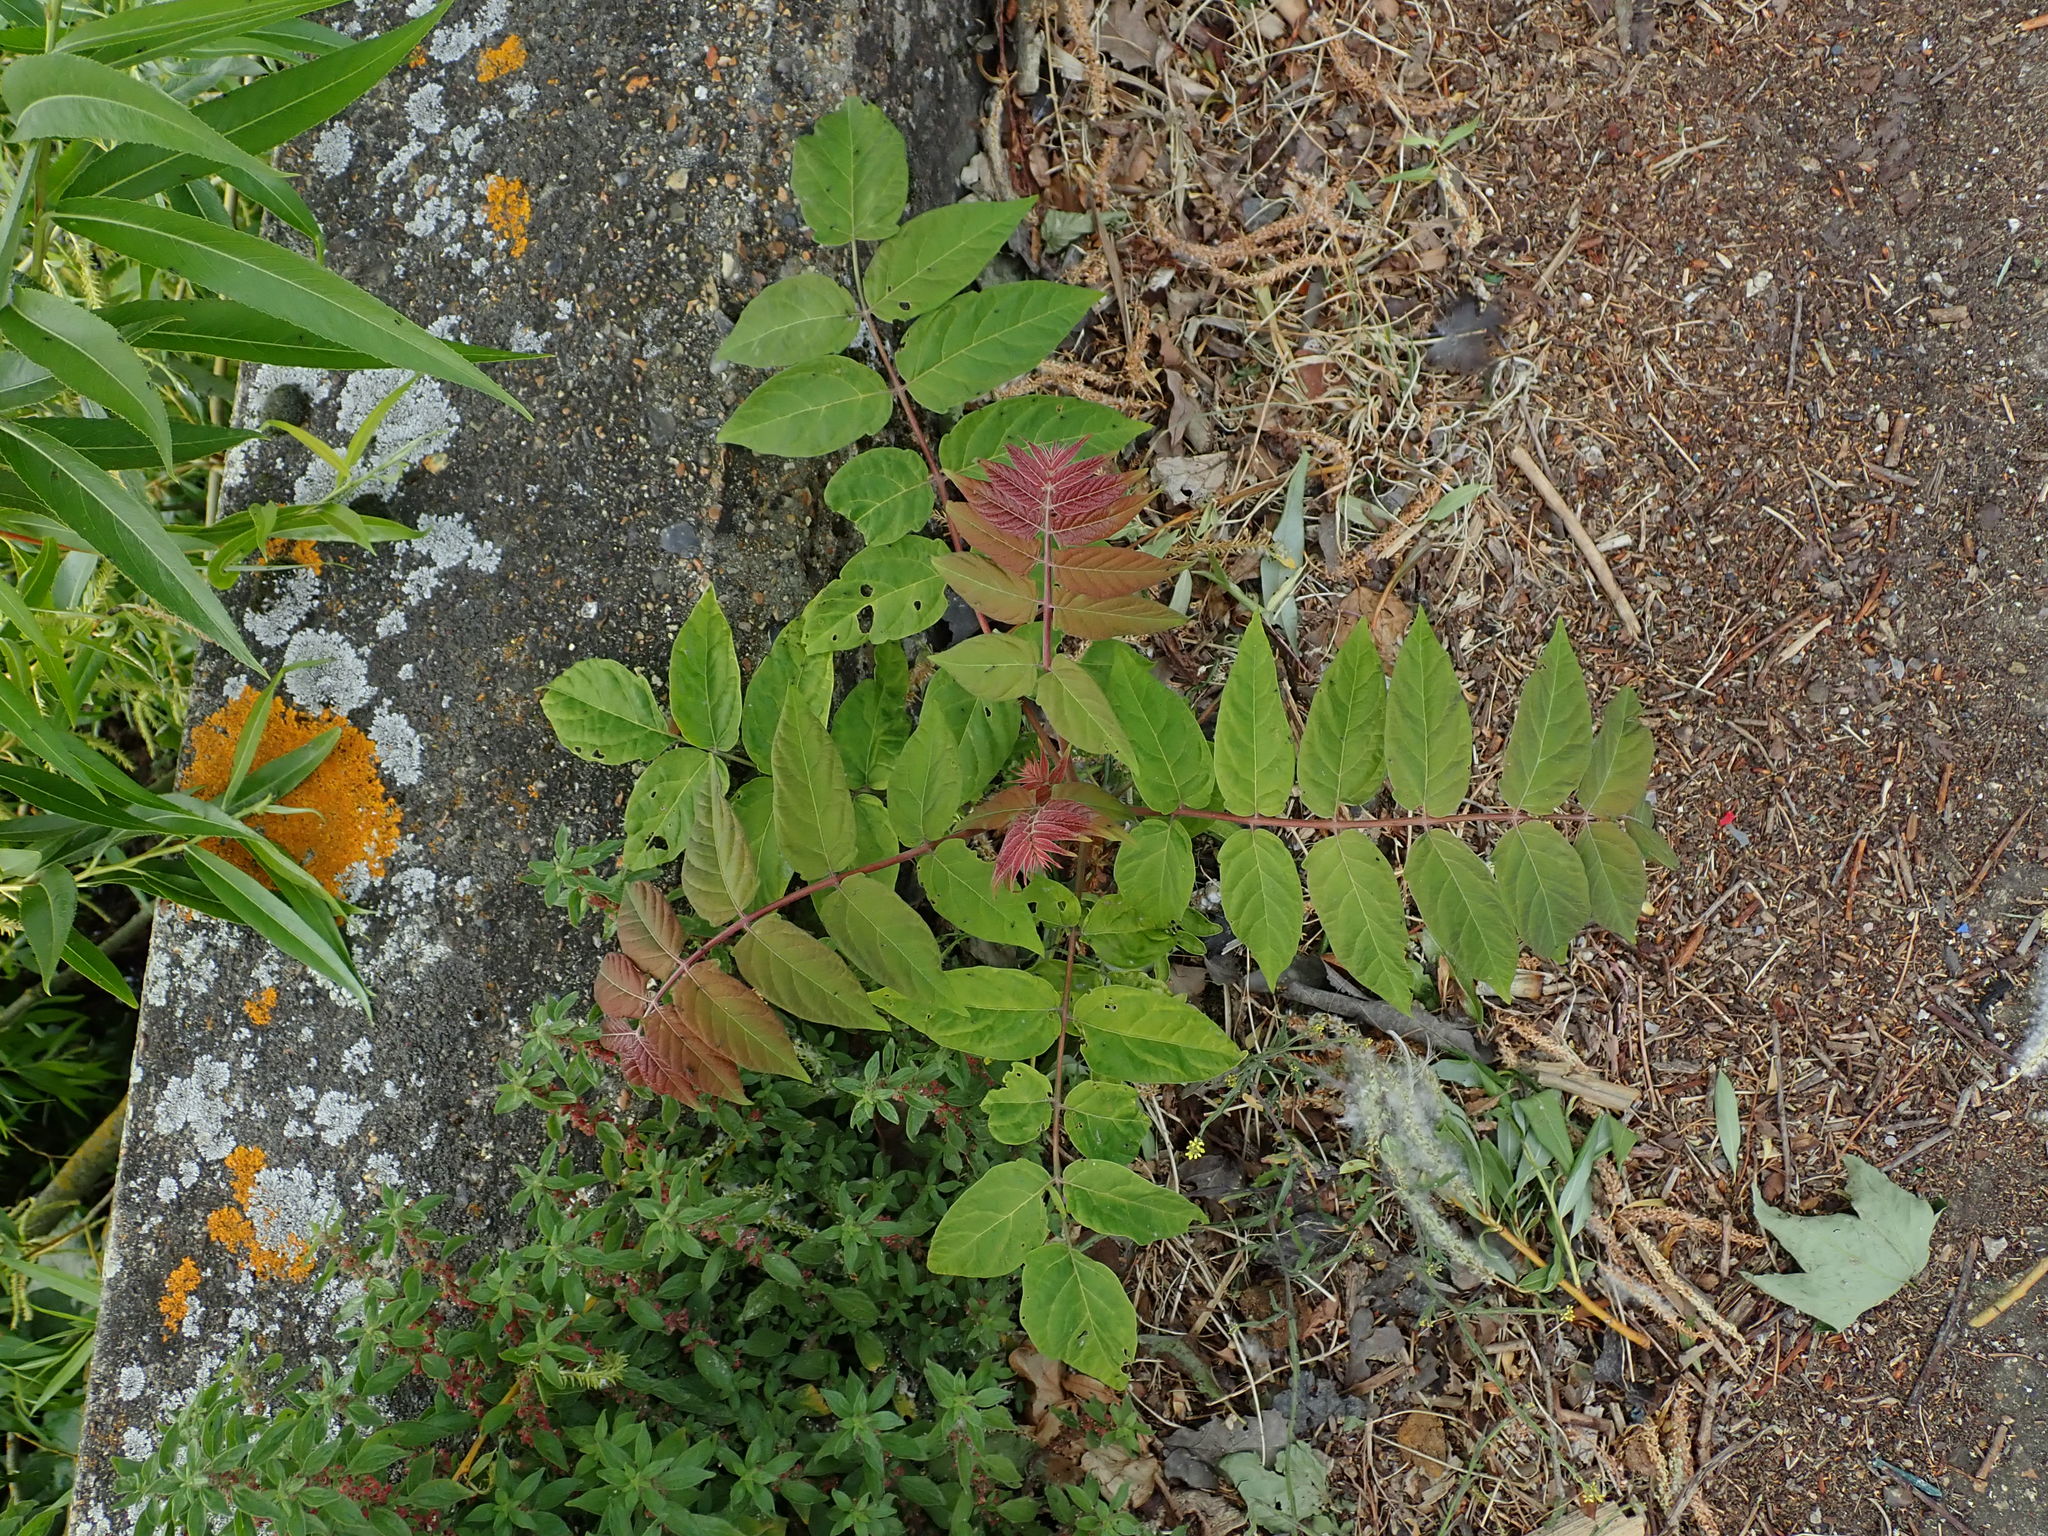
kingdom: Plantae
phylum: Tracheophyta
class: Magnoliopsida
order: Sapindales
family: Simaroubaceae
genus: Ailanthus
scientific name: Ailanthus altissima
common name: Tree-of-heaven
